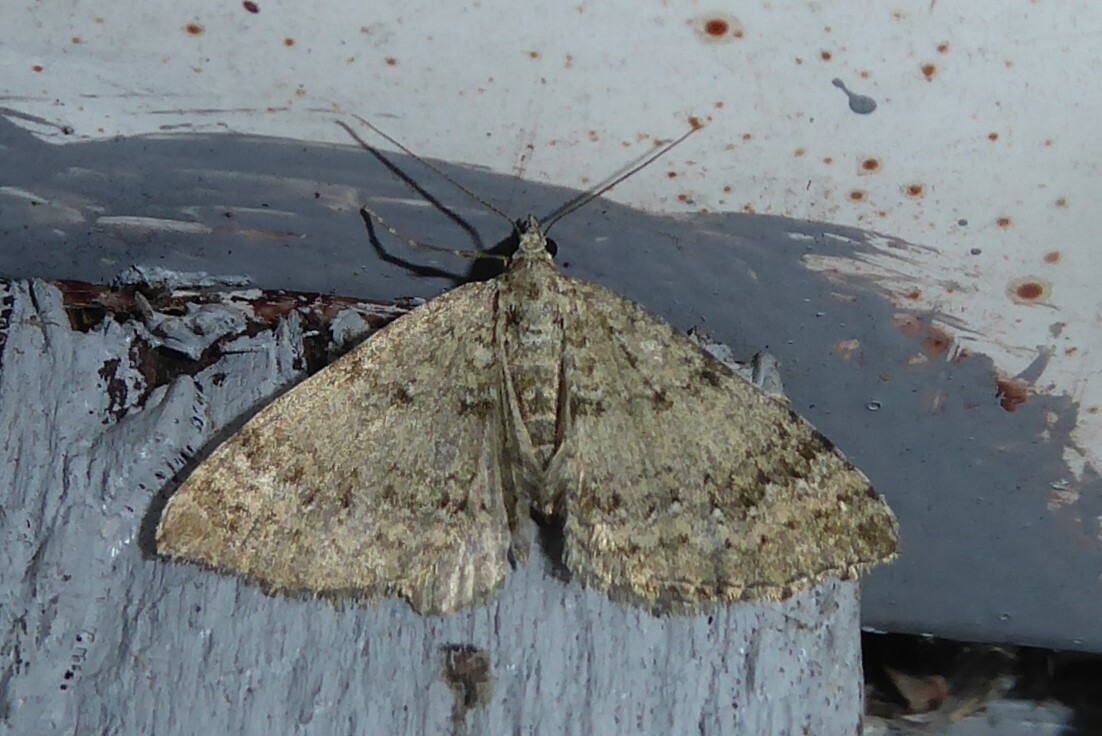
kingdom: Animalia
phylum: Arthropoda
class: Insecta
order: Lepidoptera
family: Geometridae
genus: Helastia
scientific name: Helastia corcularia
